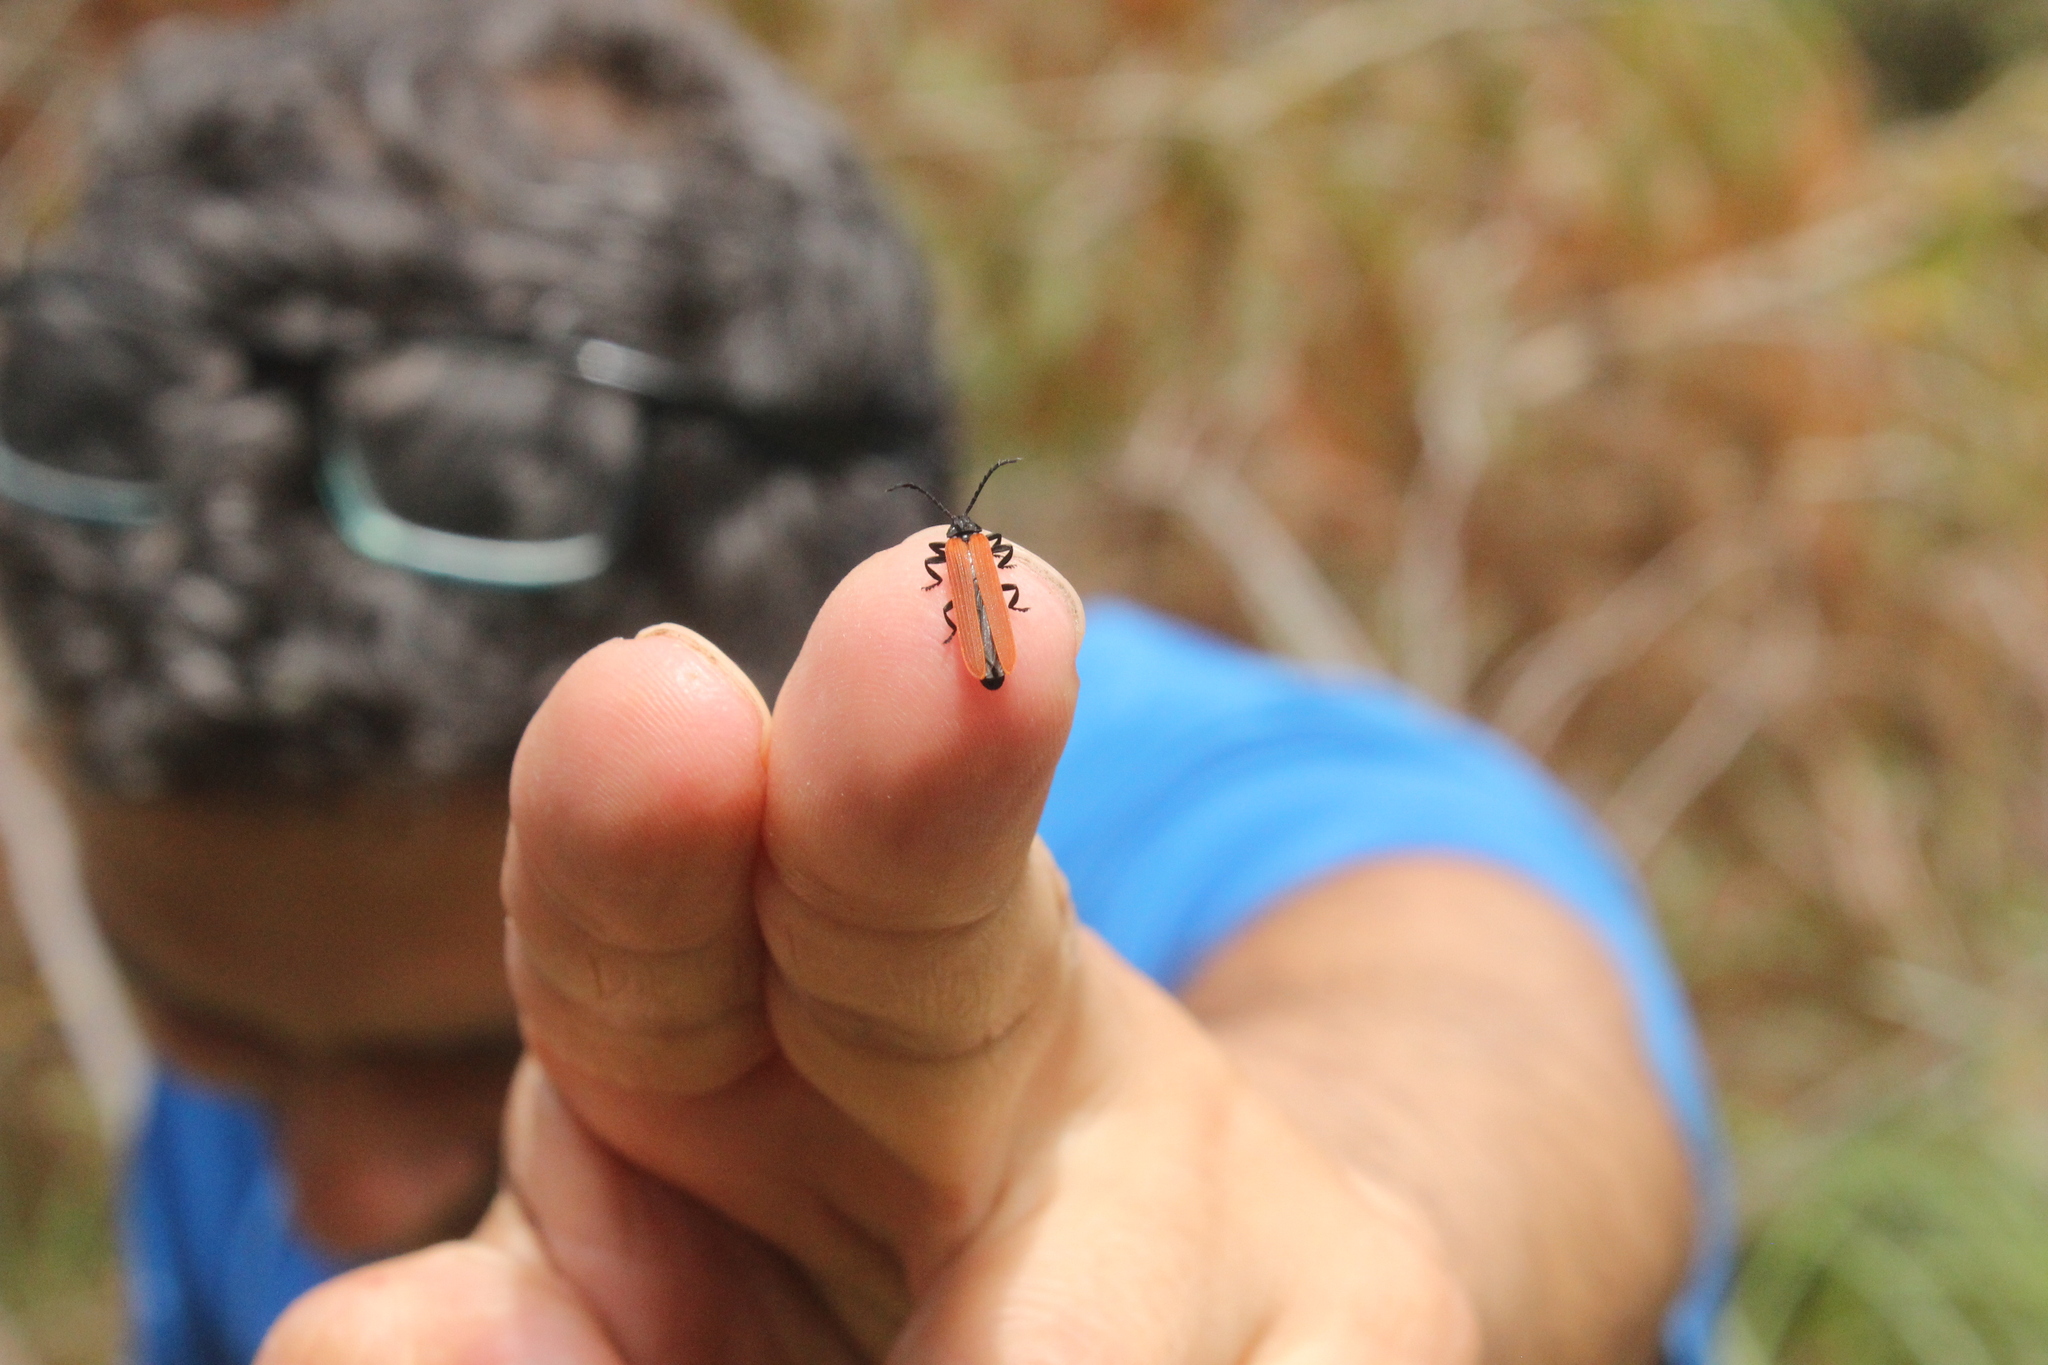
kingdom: Animalia
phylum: Arthropoda
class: Insecta
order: Coleoptera
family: Lycidae
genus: Porrostoma
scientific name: Porrostoma rufipenne
